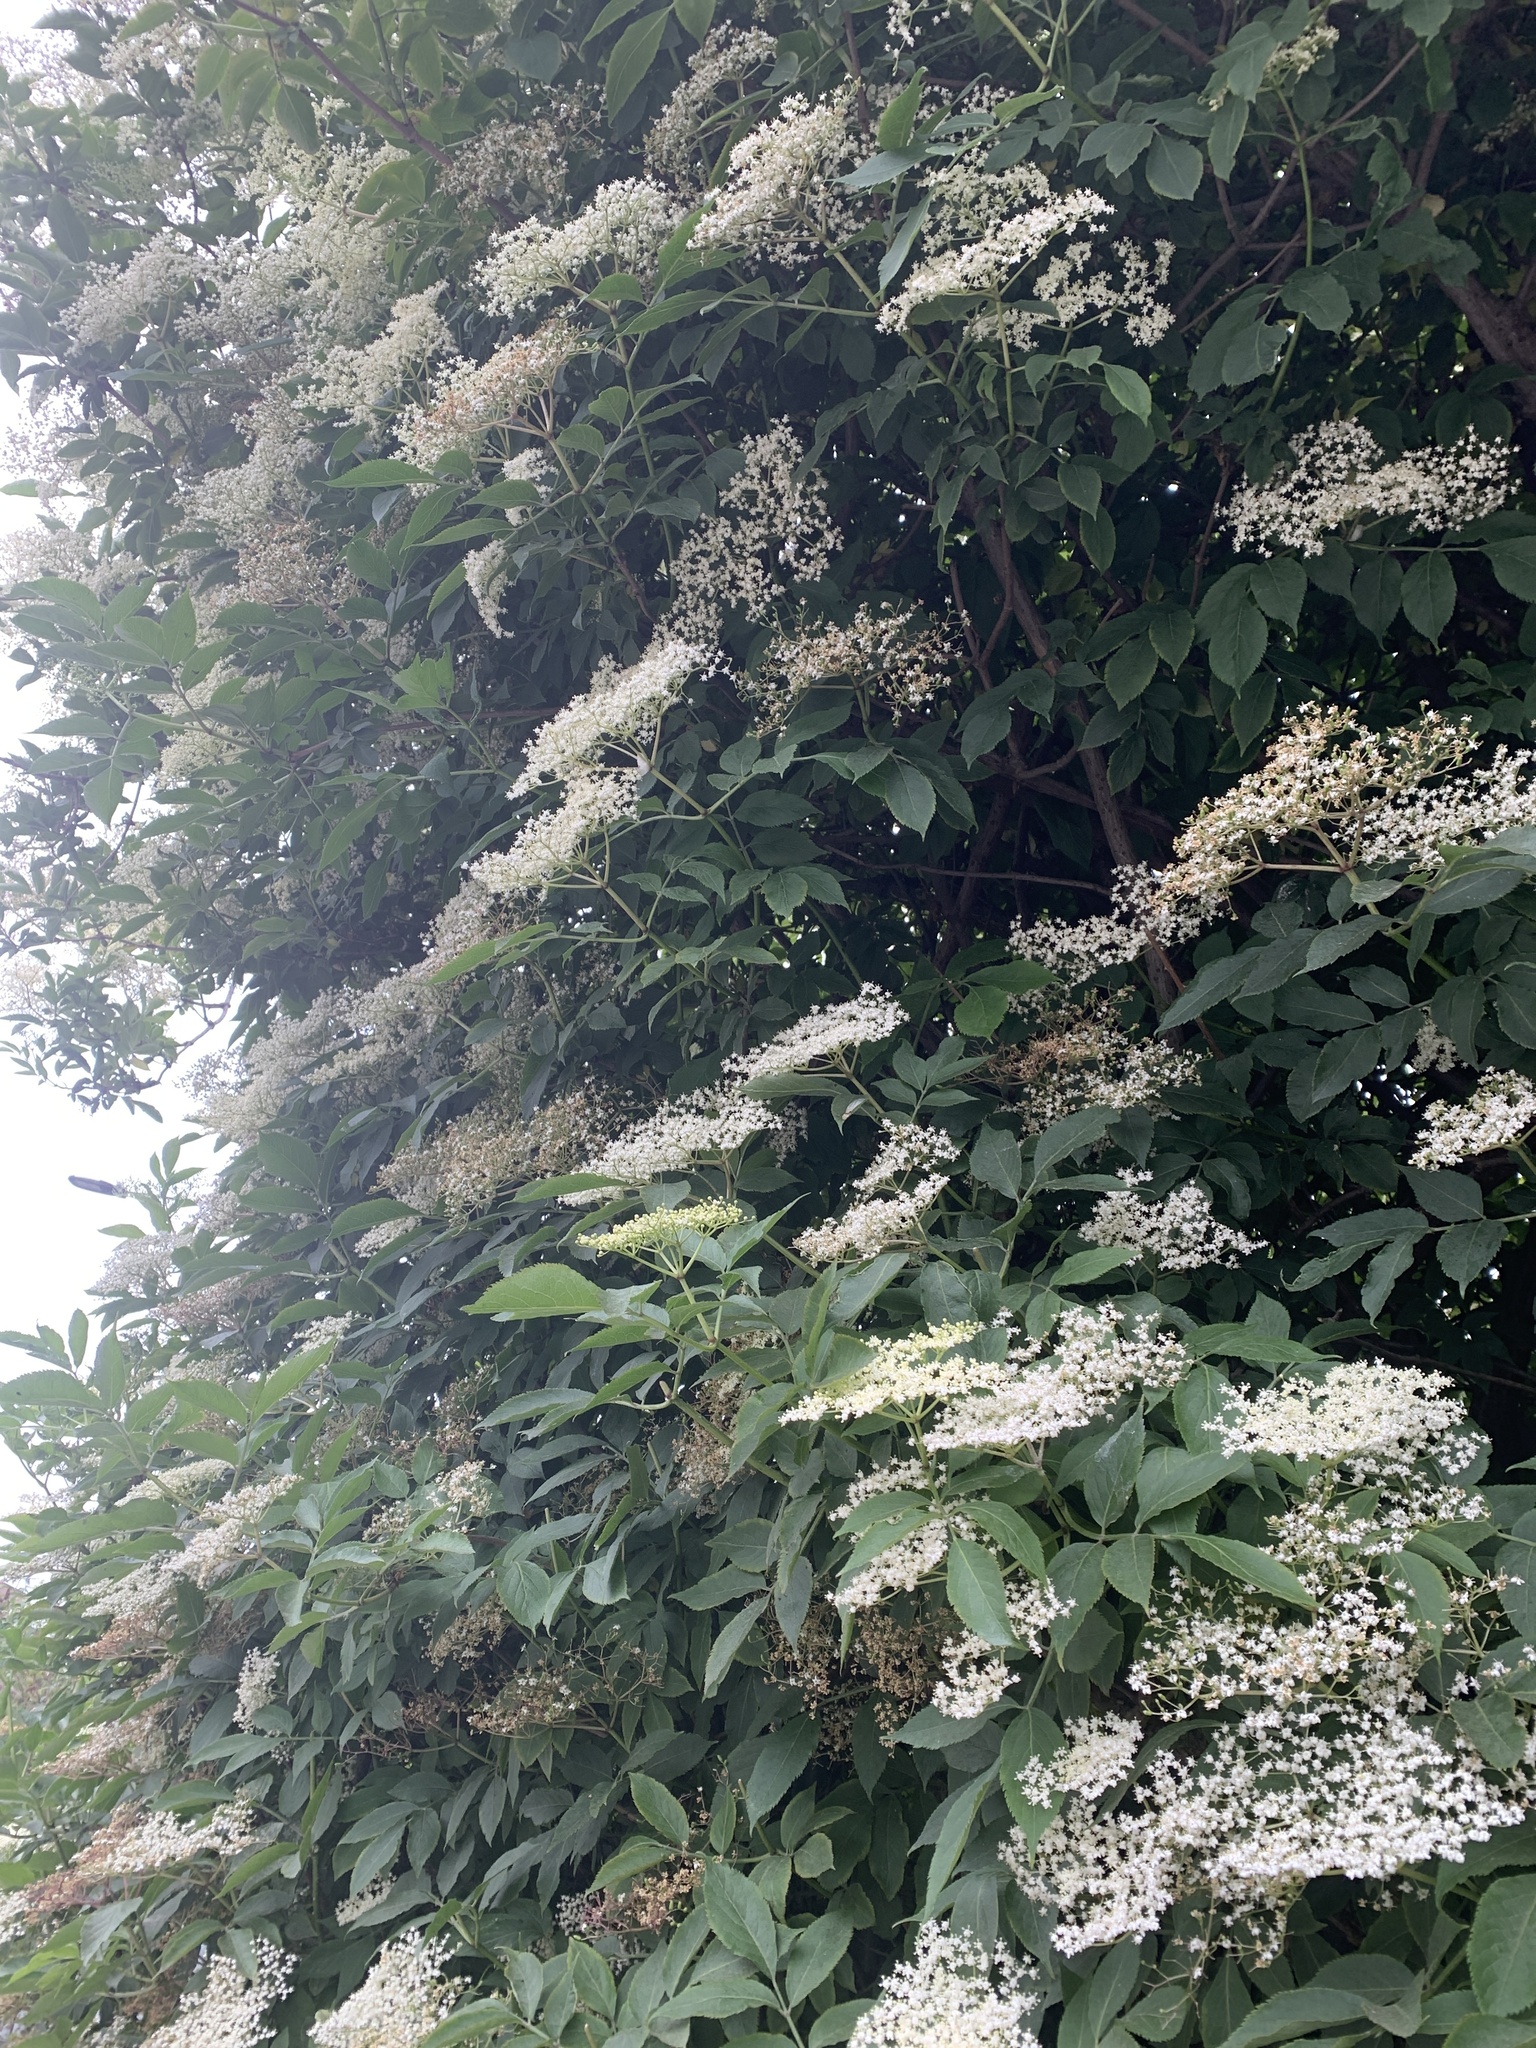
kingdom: Plantae
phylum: Tracheophyta
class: Magnoliopsida
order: Dipsacales
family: Viburnaceae
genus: Sambucus
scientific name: Sambucus nigra
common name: Elder
